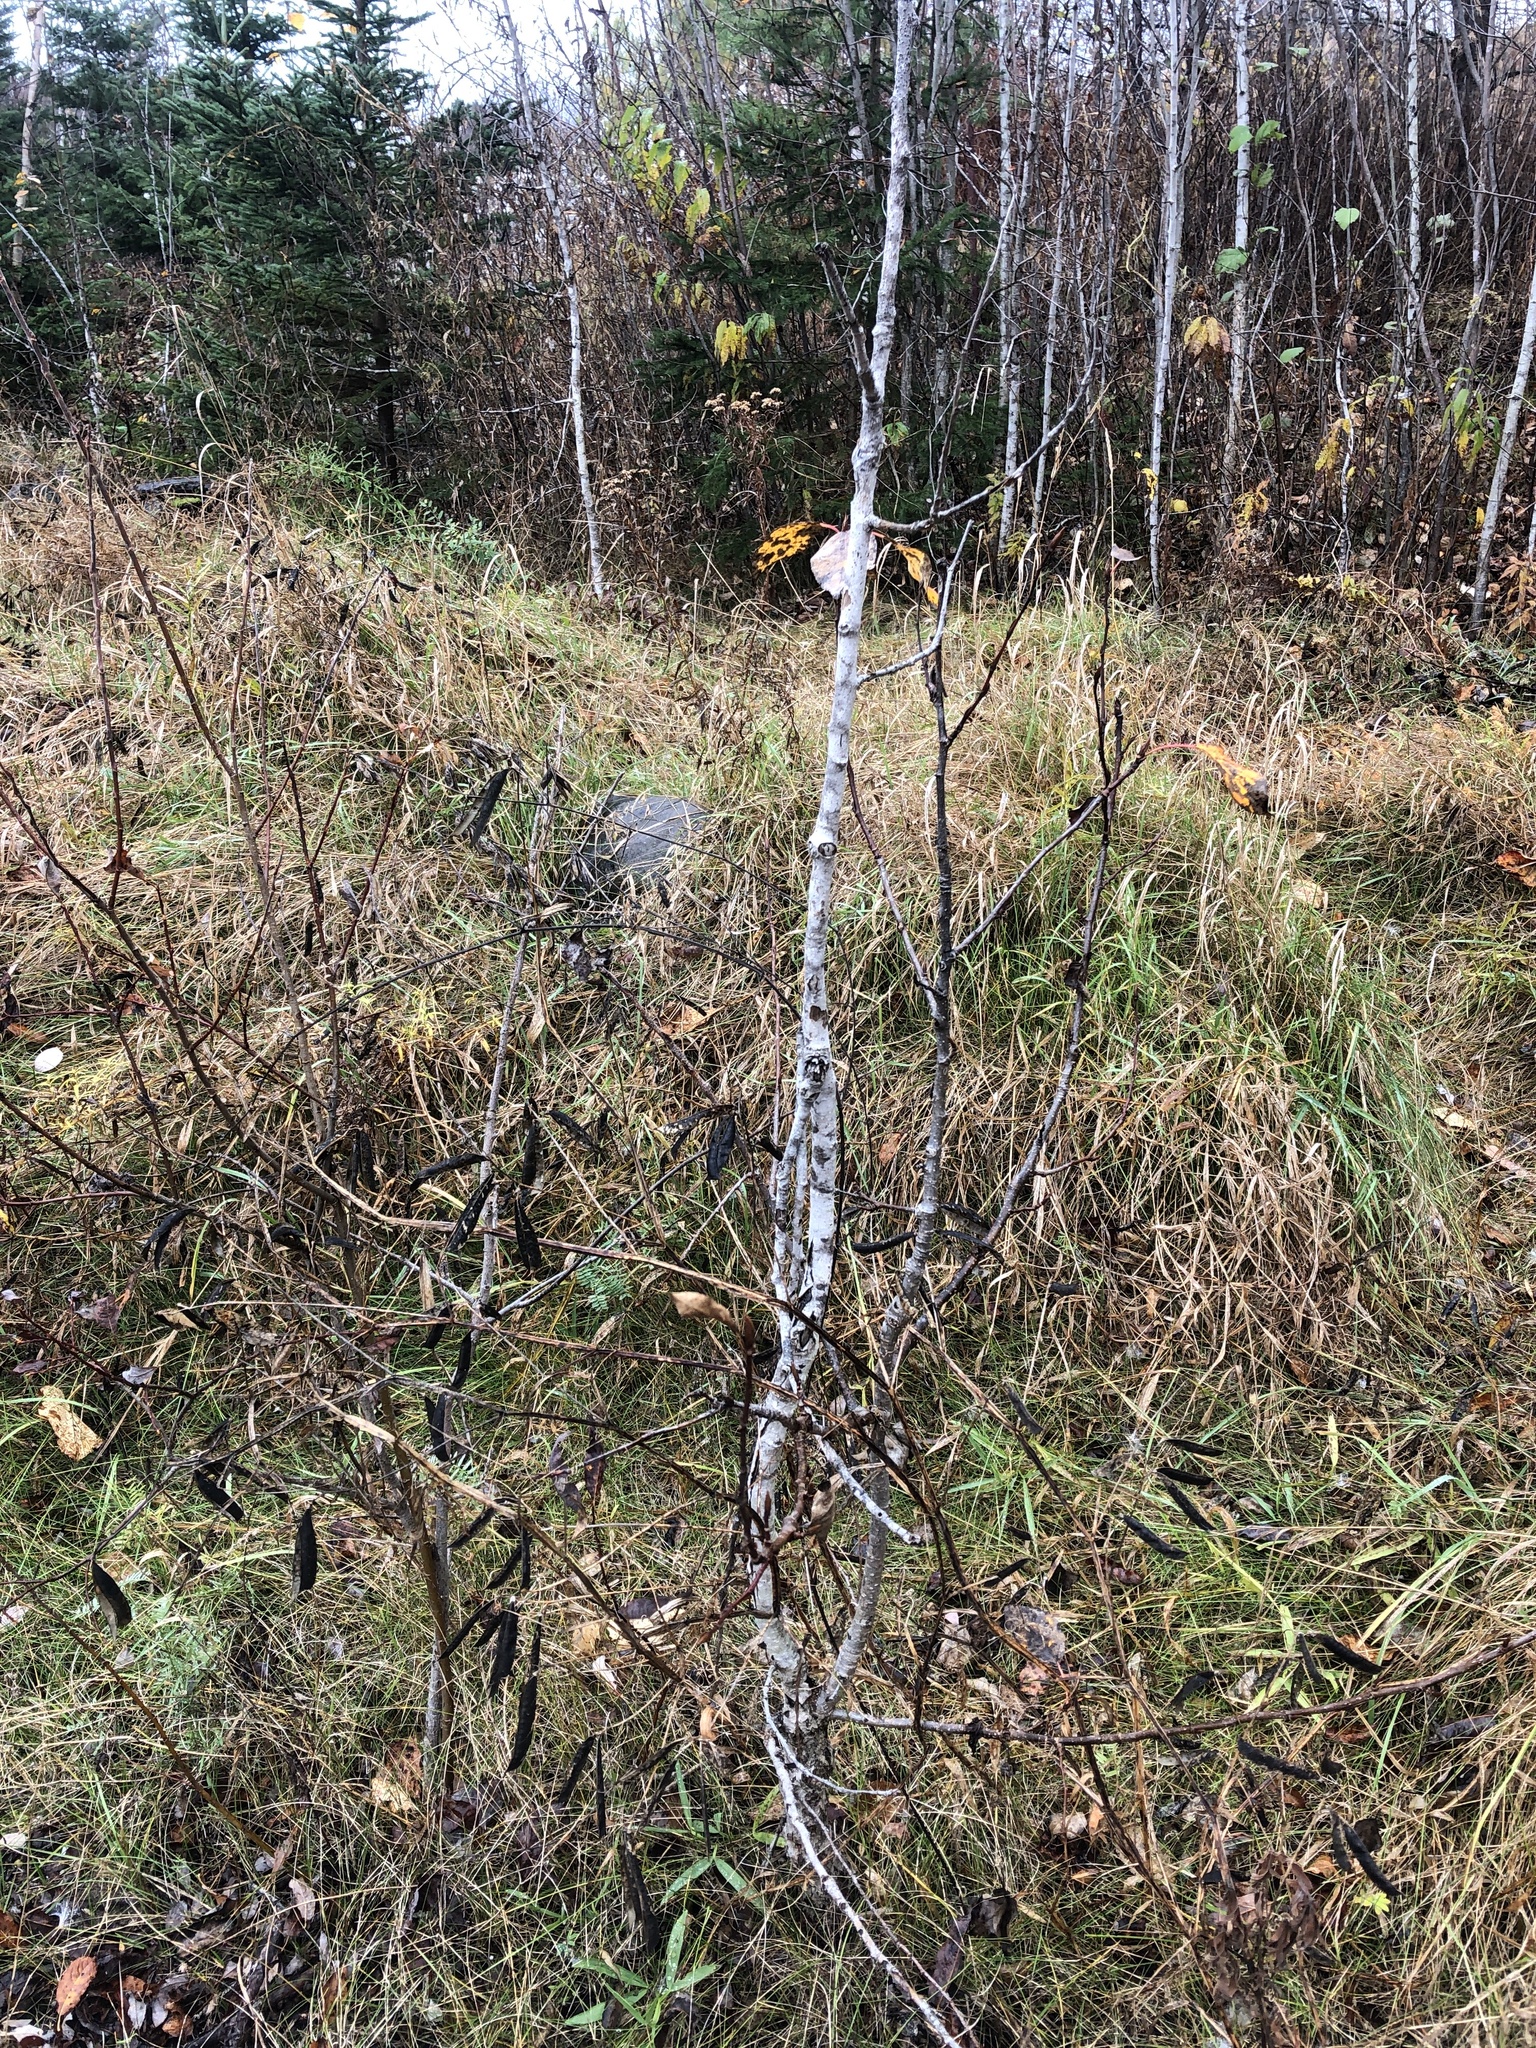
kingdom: Plantae
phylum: Tracheophyta
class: Magnoliopsida
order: Fabales
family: Fabaceae
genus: Lathyrus
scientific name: Lathyrus sylvestris
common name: Flat pea
